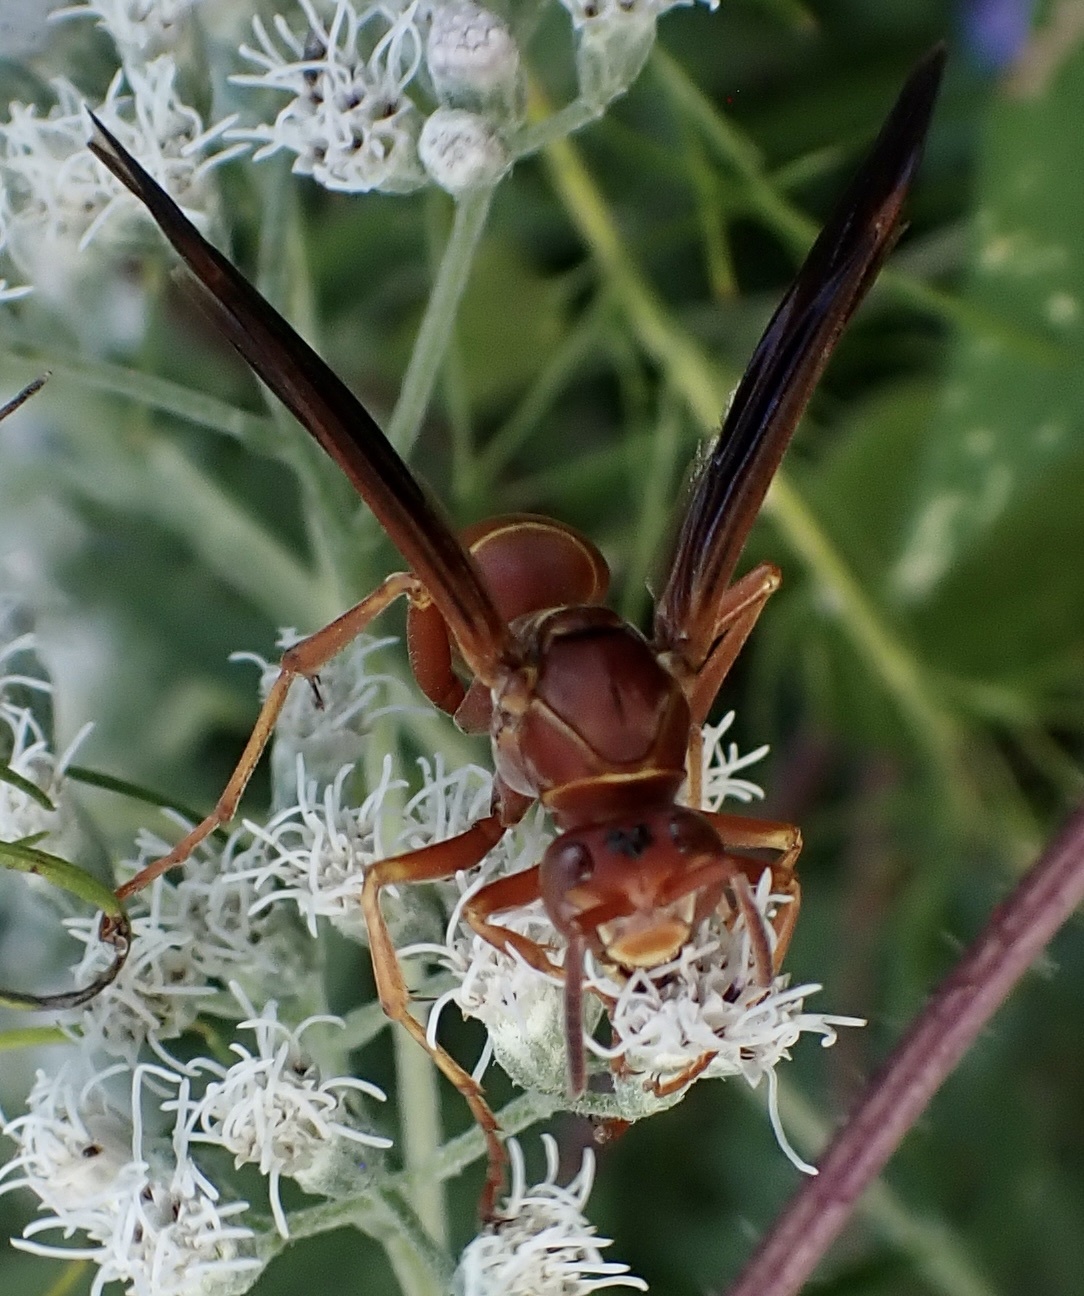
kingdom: Animalia
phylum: Arthropoda
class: Insecta
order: Hymenoptera
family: Eumenidae
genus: Polistes
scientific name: Polistes bellicosus
